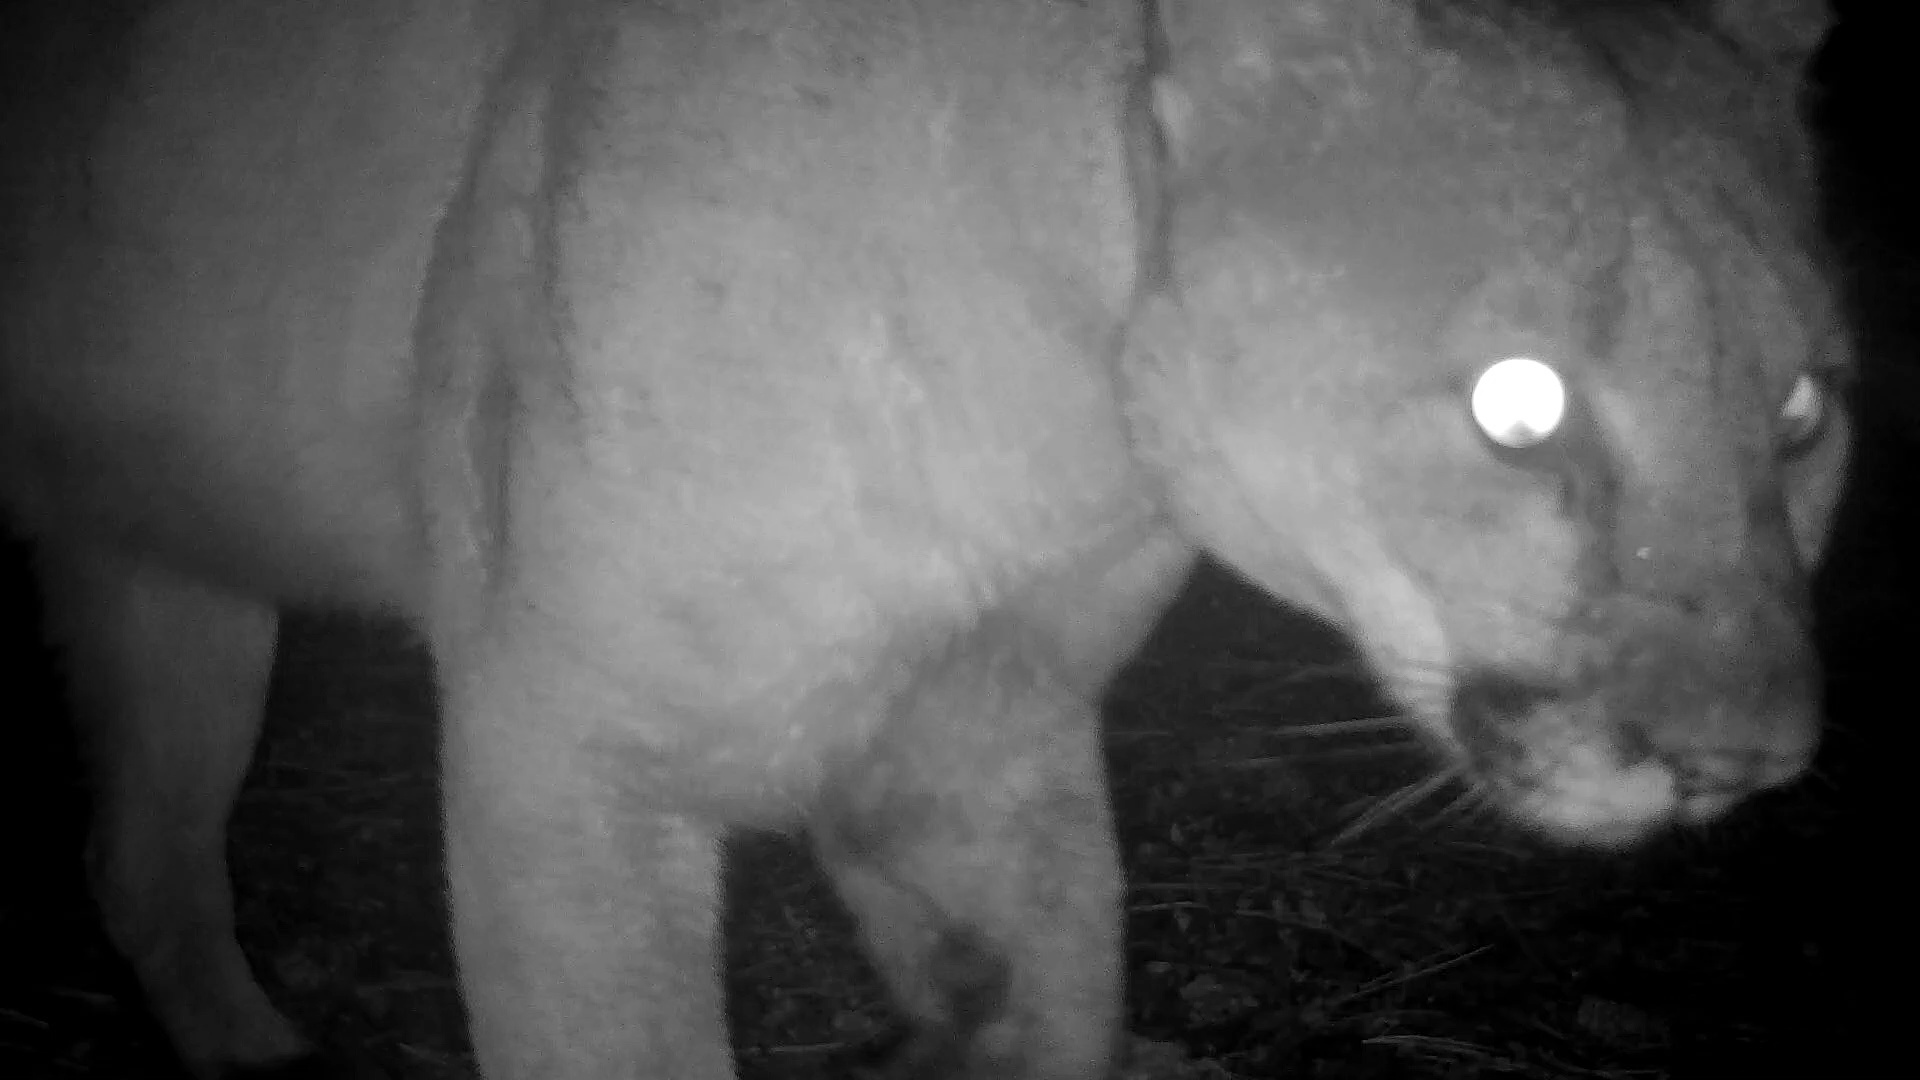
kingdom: Animalia
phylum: Chordata
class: Mammalia
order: Carnivora
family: Felidae
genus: Puma
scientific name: Puma concolor
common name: Puma
